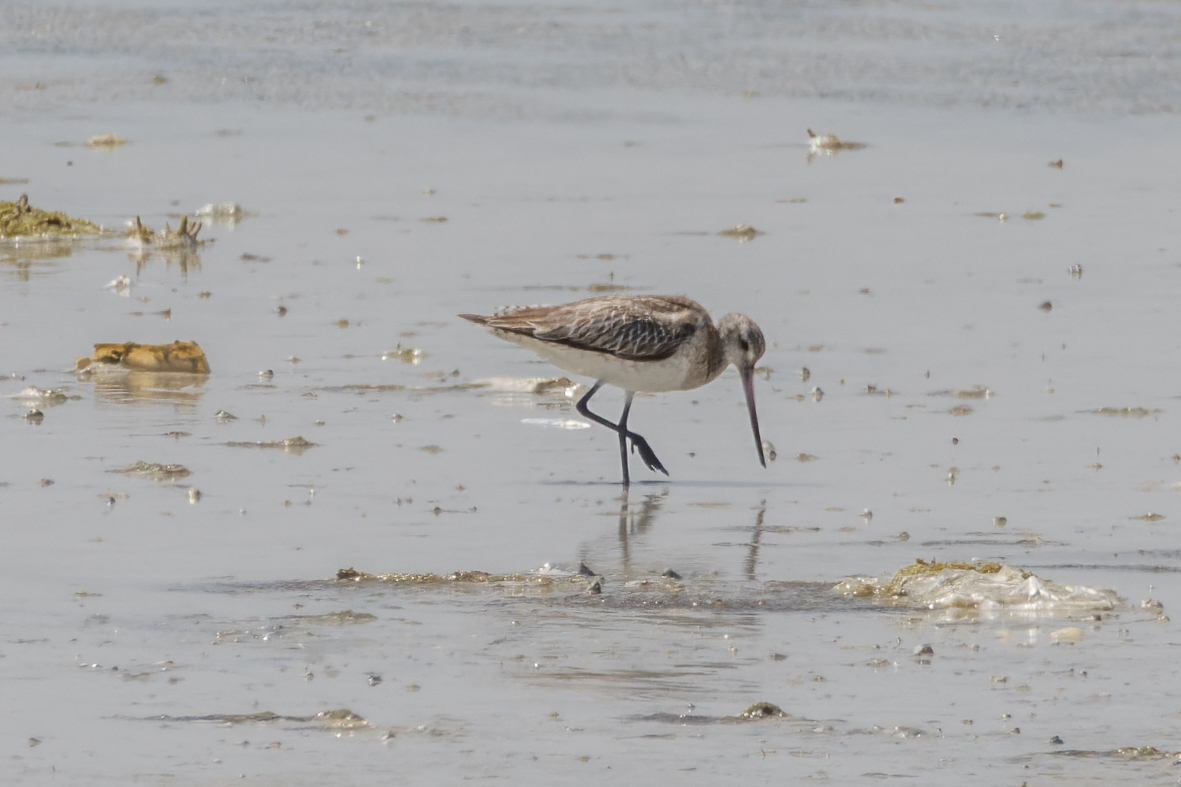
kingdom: Animalia
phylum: Chordata
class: Aves
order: Charadriiformes
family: Scolopacidae
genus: Limosa
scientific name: Limosa lapponica
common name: Bar-tailed godwit
